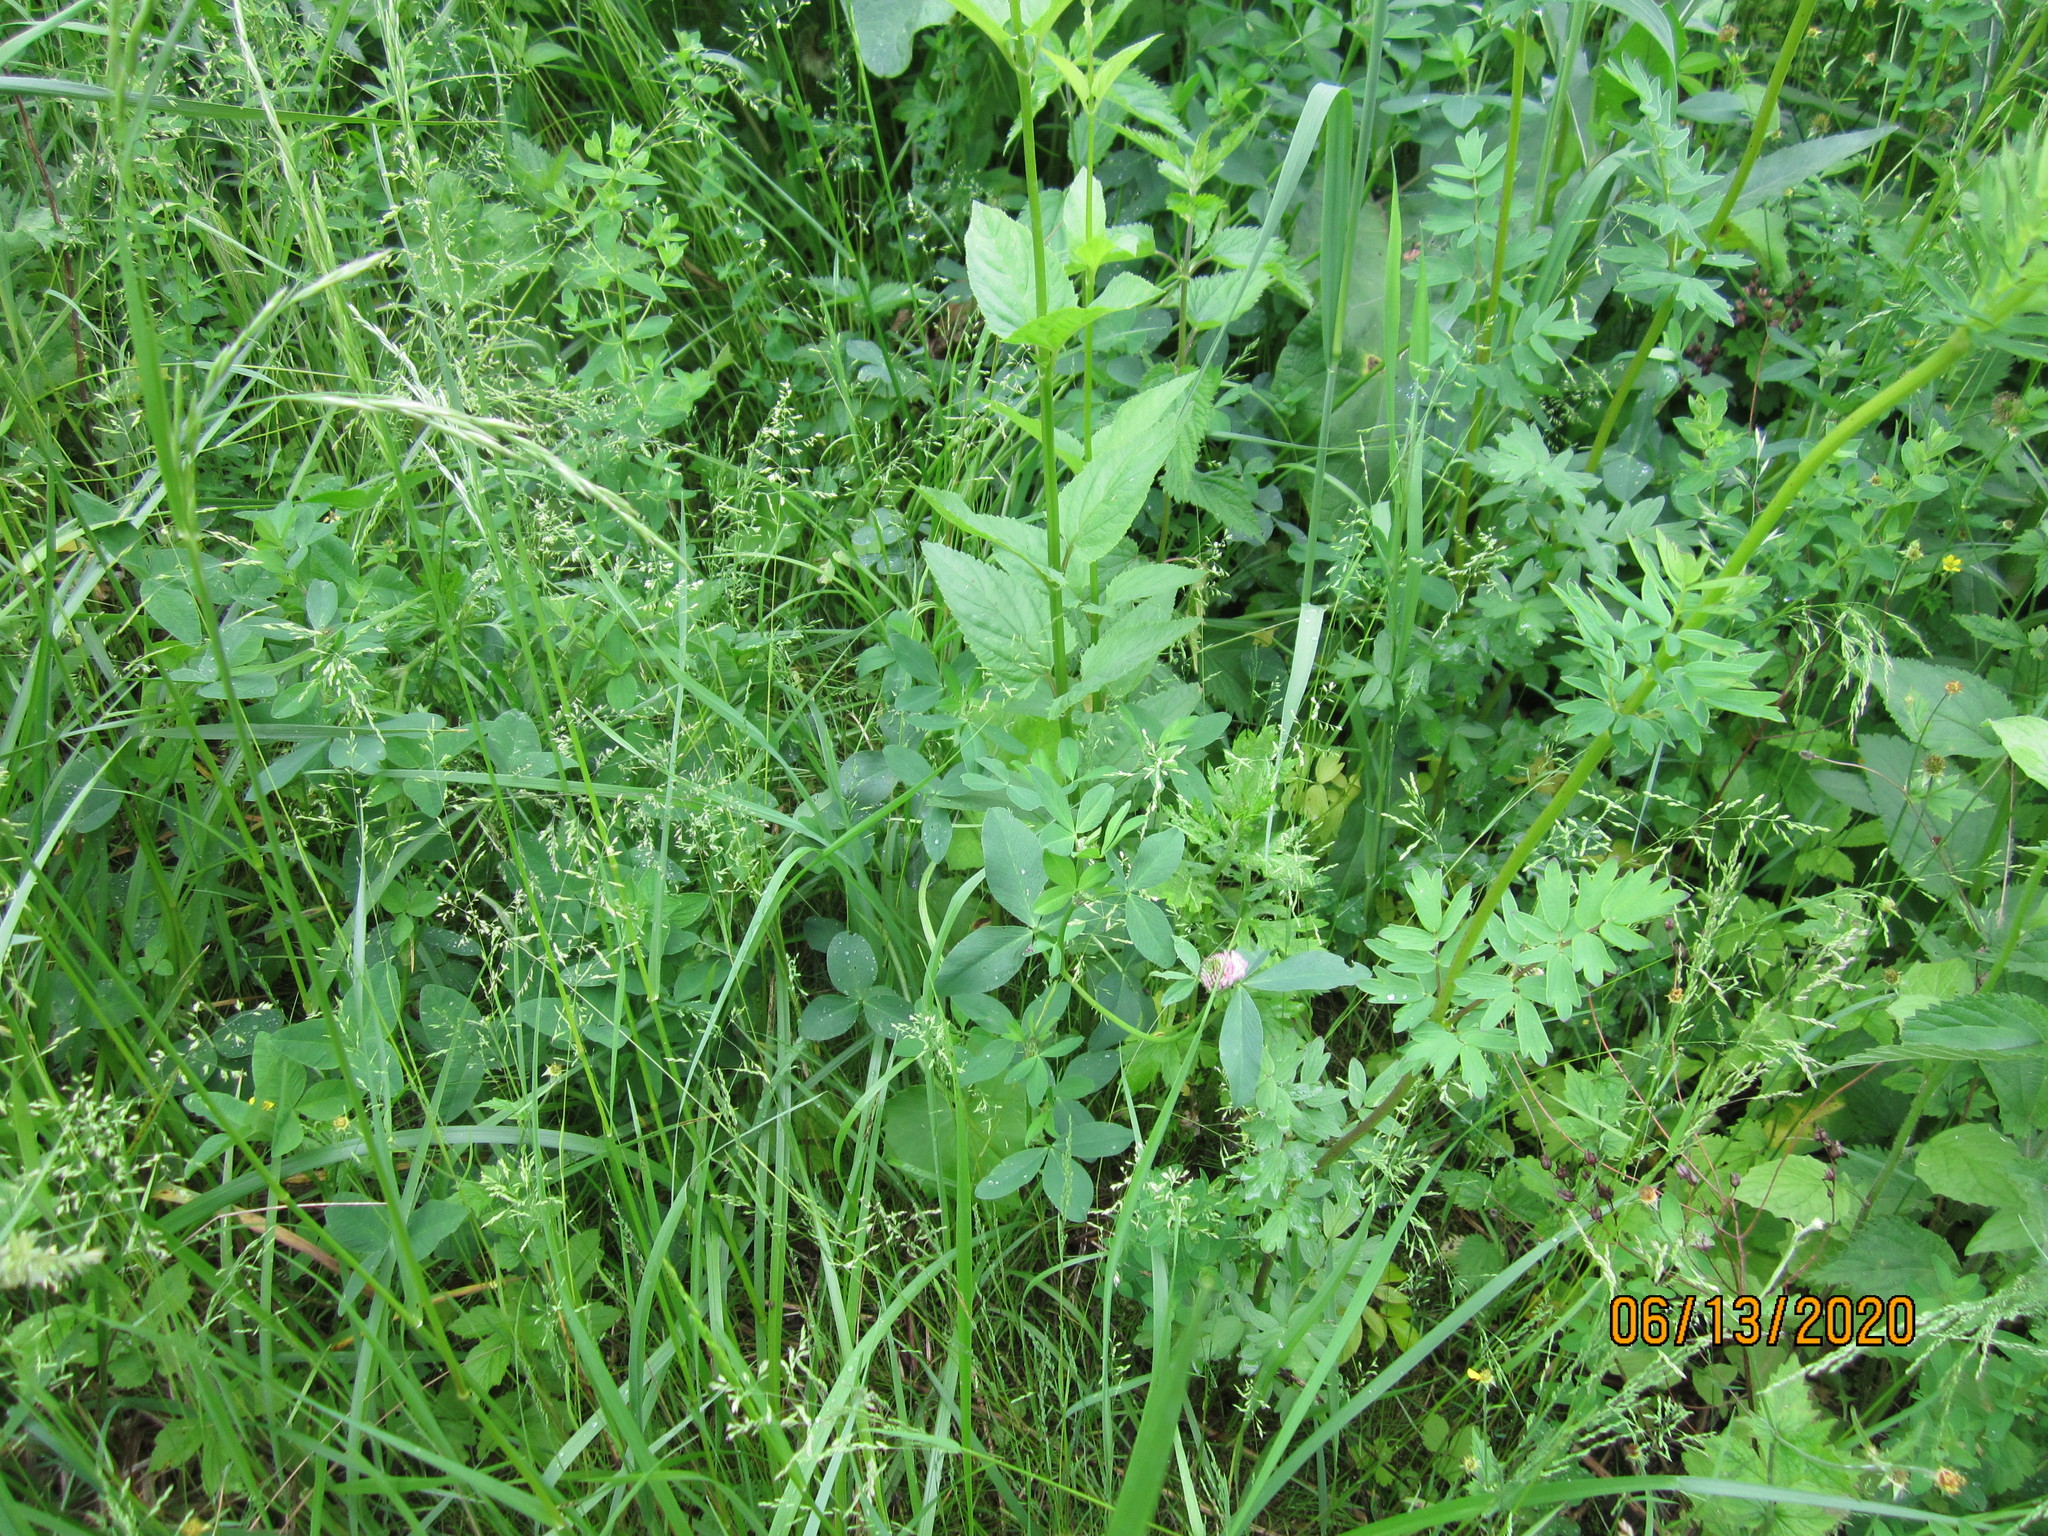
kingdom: Plantae
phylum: Tracheophyta
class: Magnoliopsida
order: Fabales
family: Fabaceae
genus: Trifolium
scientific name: Trifolium pratense
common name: Red clover
